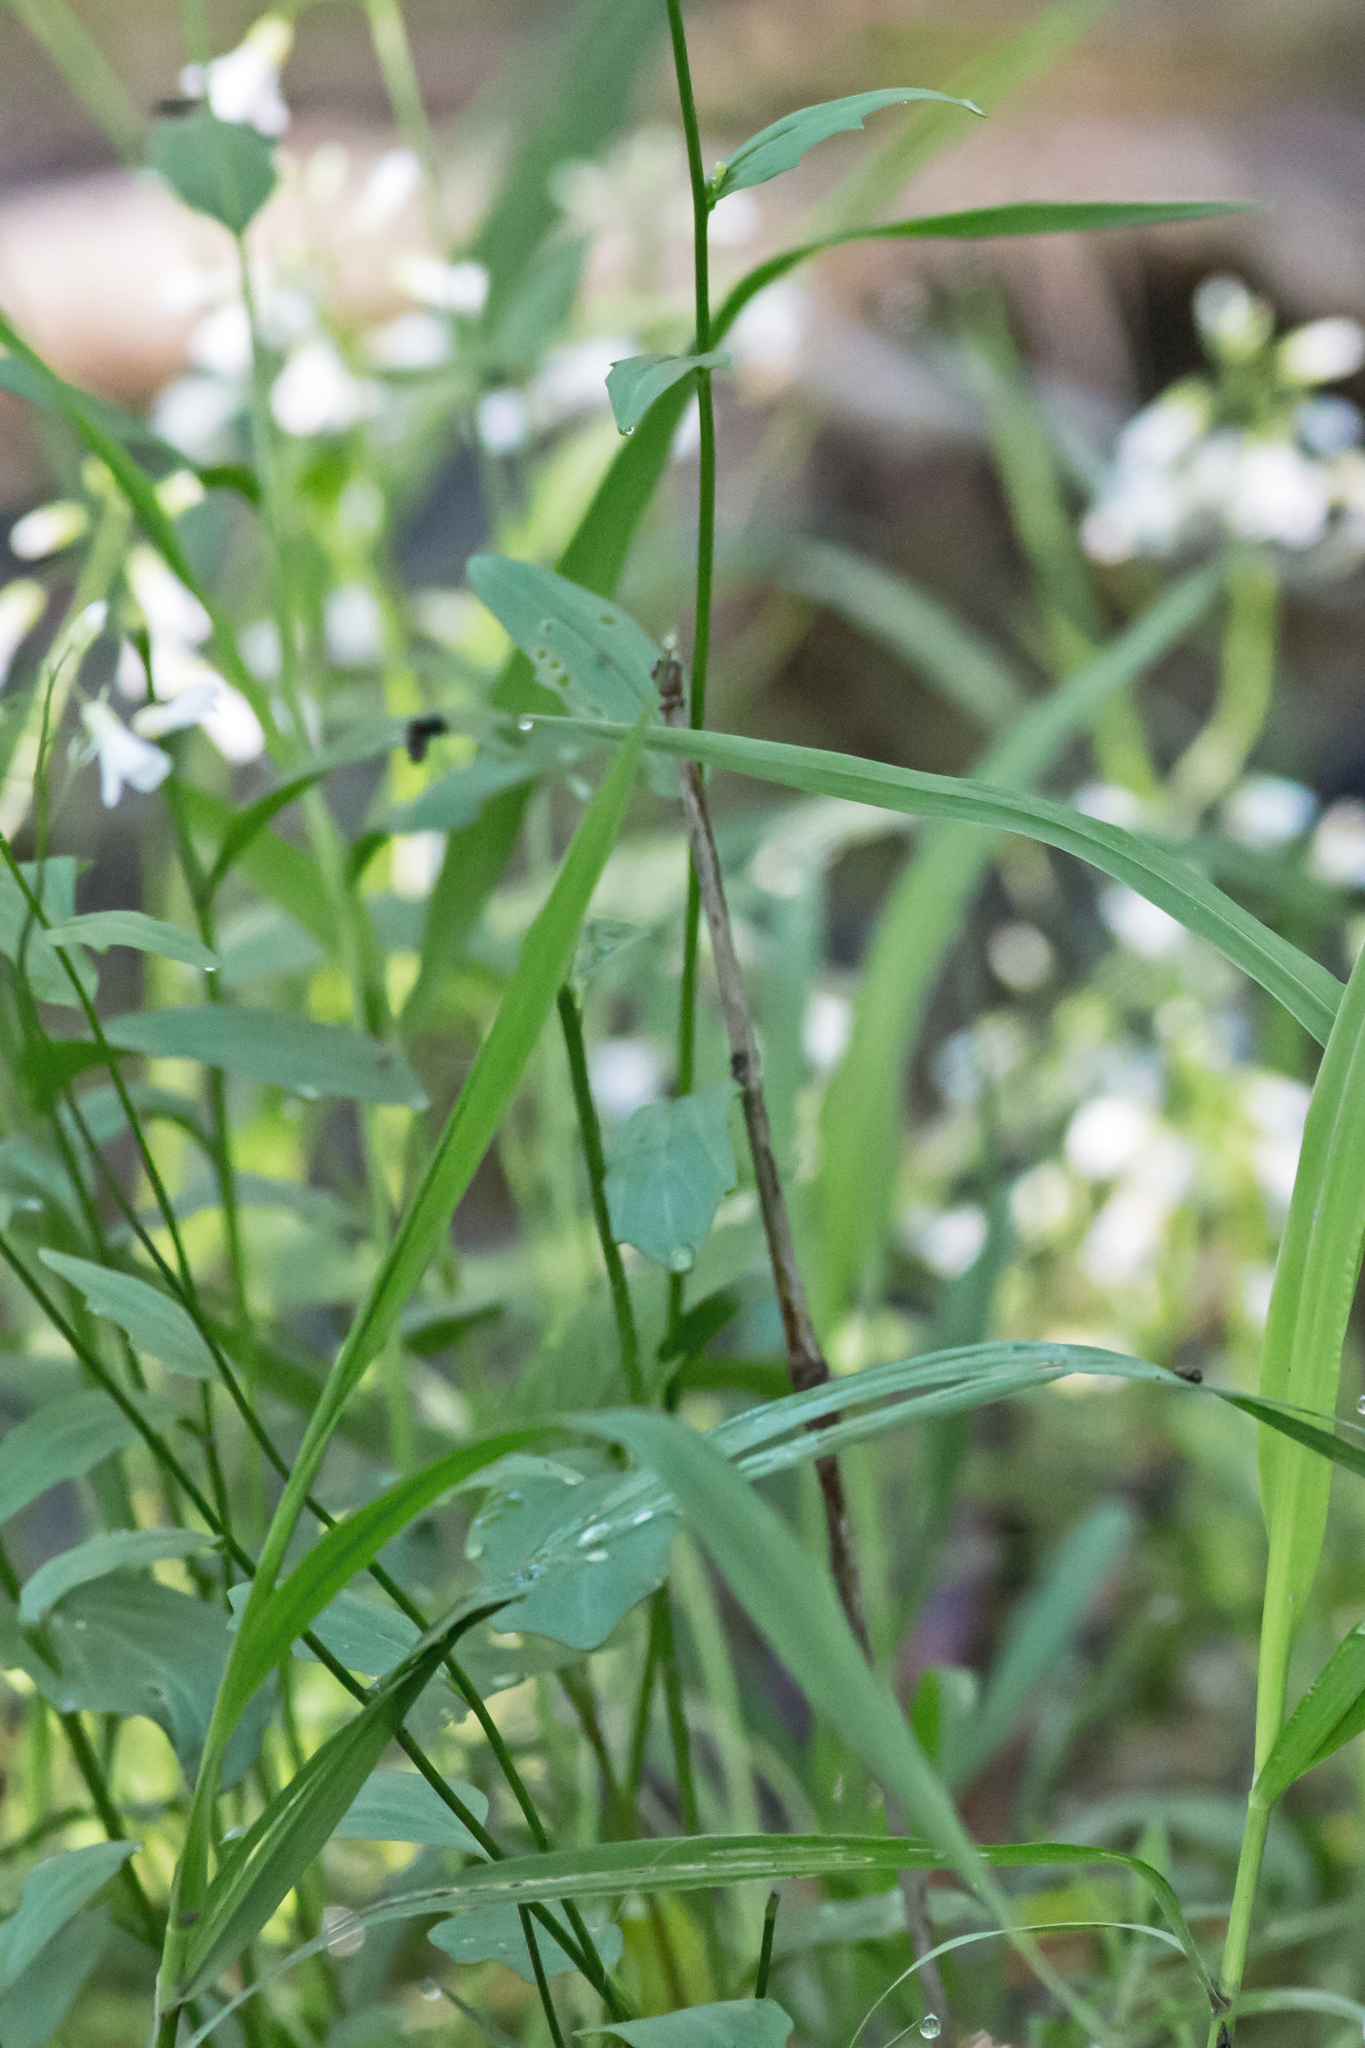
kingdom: Plantae
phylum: Tracheophyta
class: Magnoliopsida
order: Brassicales
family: Brassicaceae
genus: Cardamine
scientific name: Cardamine bulbosa
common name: Spring cress
